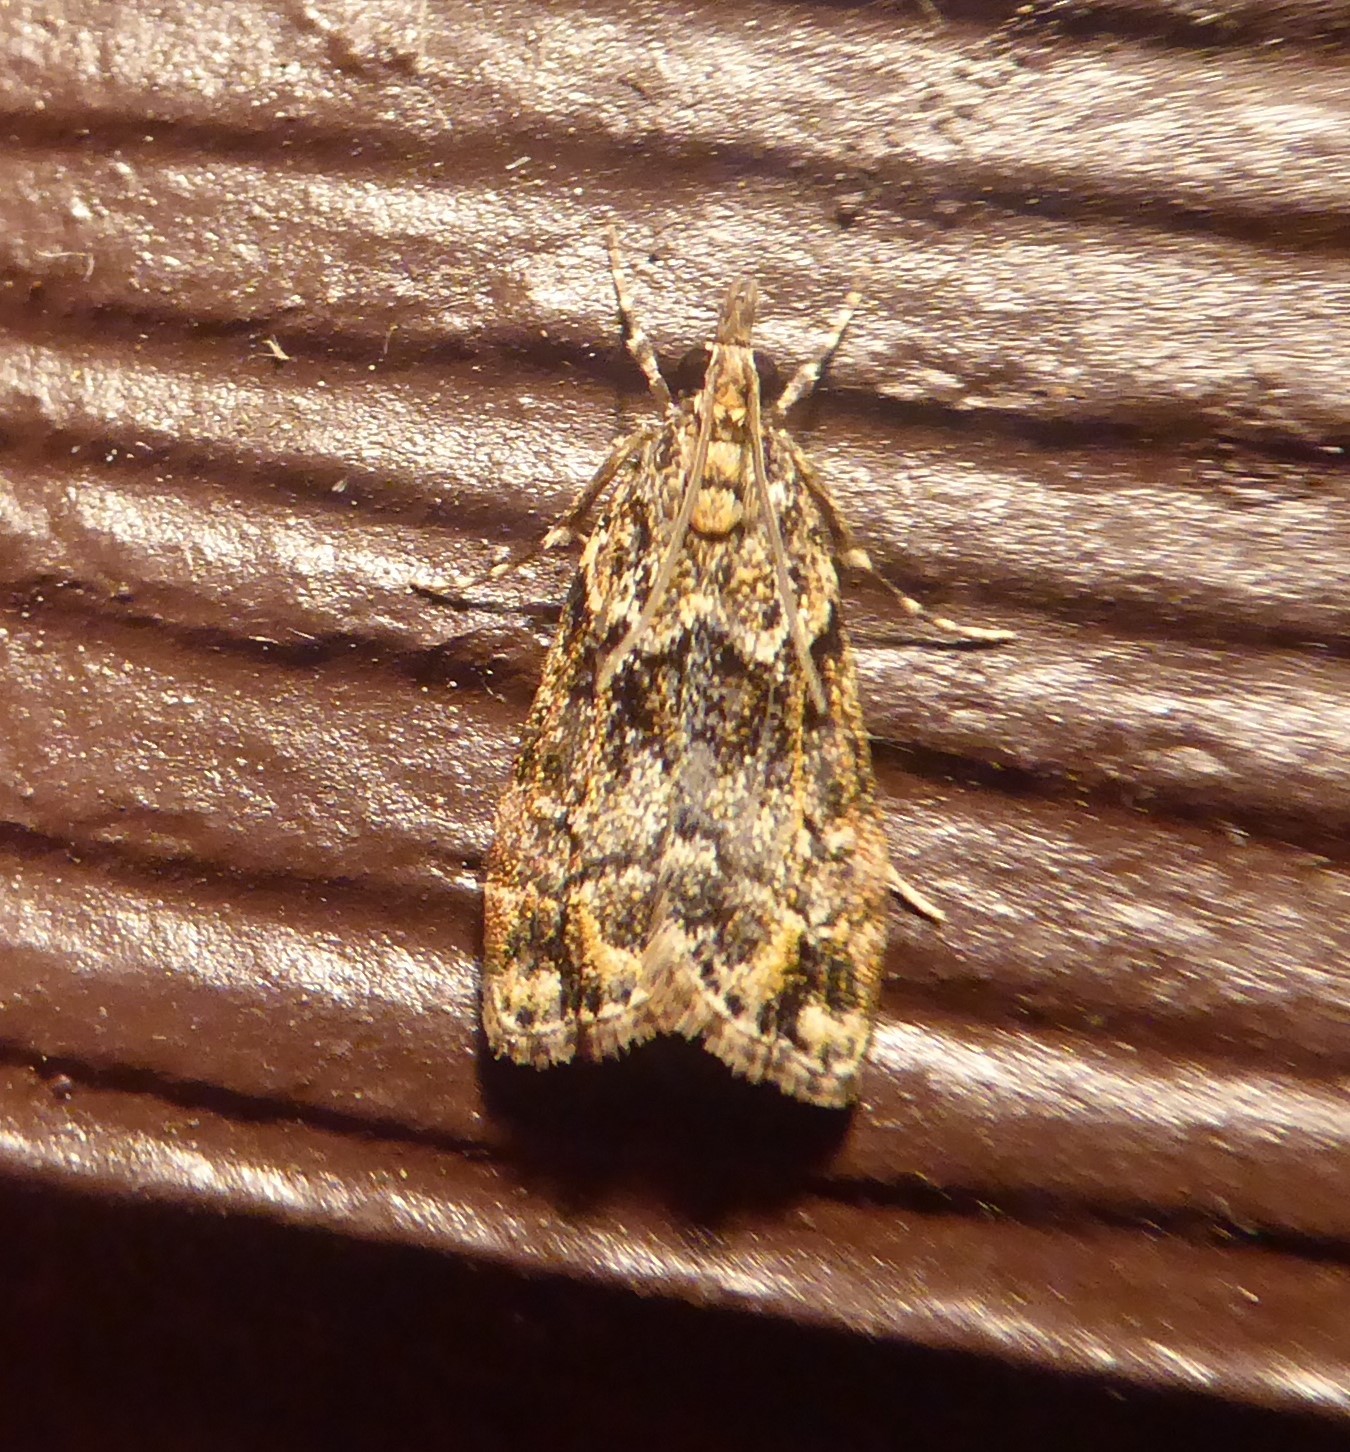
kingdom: Animalia
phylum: Arthropoda
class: Insecta
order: Lepidoptera
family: Crambidae
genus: Eudonia
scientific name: Eudonia minualis
